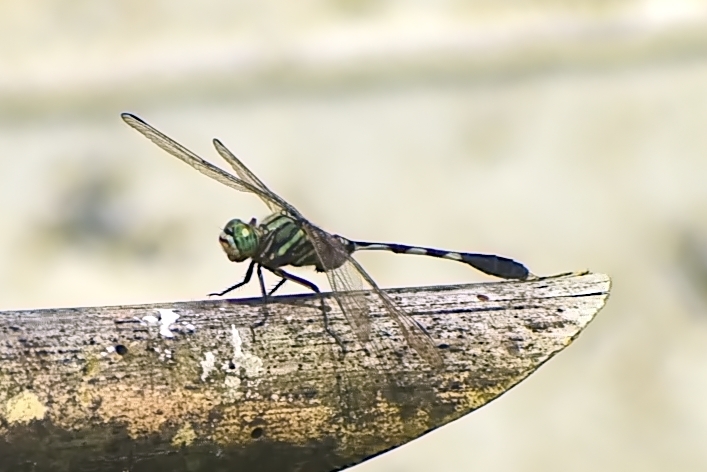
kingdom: Animalia
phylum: Arthropoda
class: Insecta
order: Odonata
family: Libellulidae
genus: Orthetrum
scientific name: Orthetrum sabina
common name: Slender skimmer
